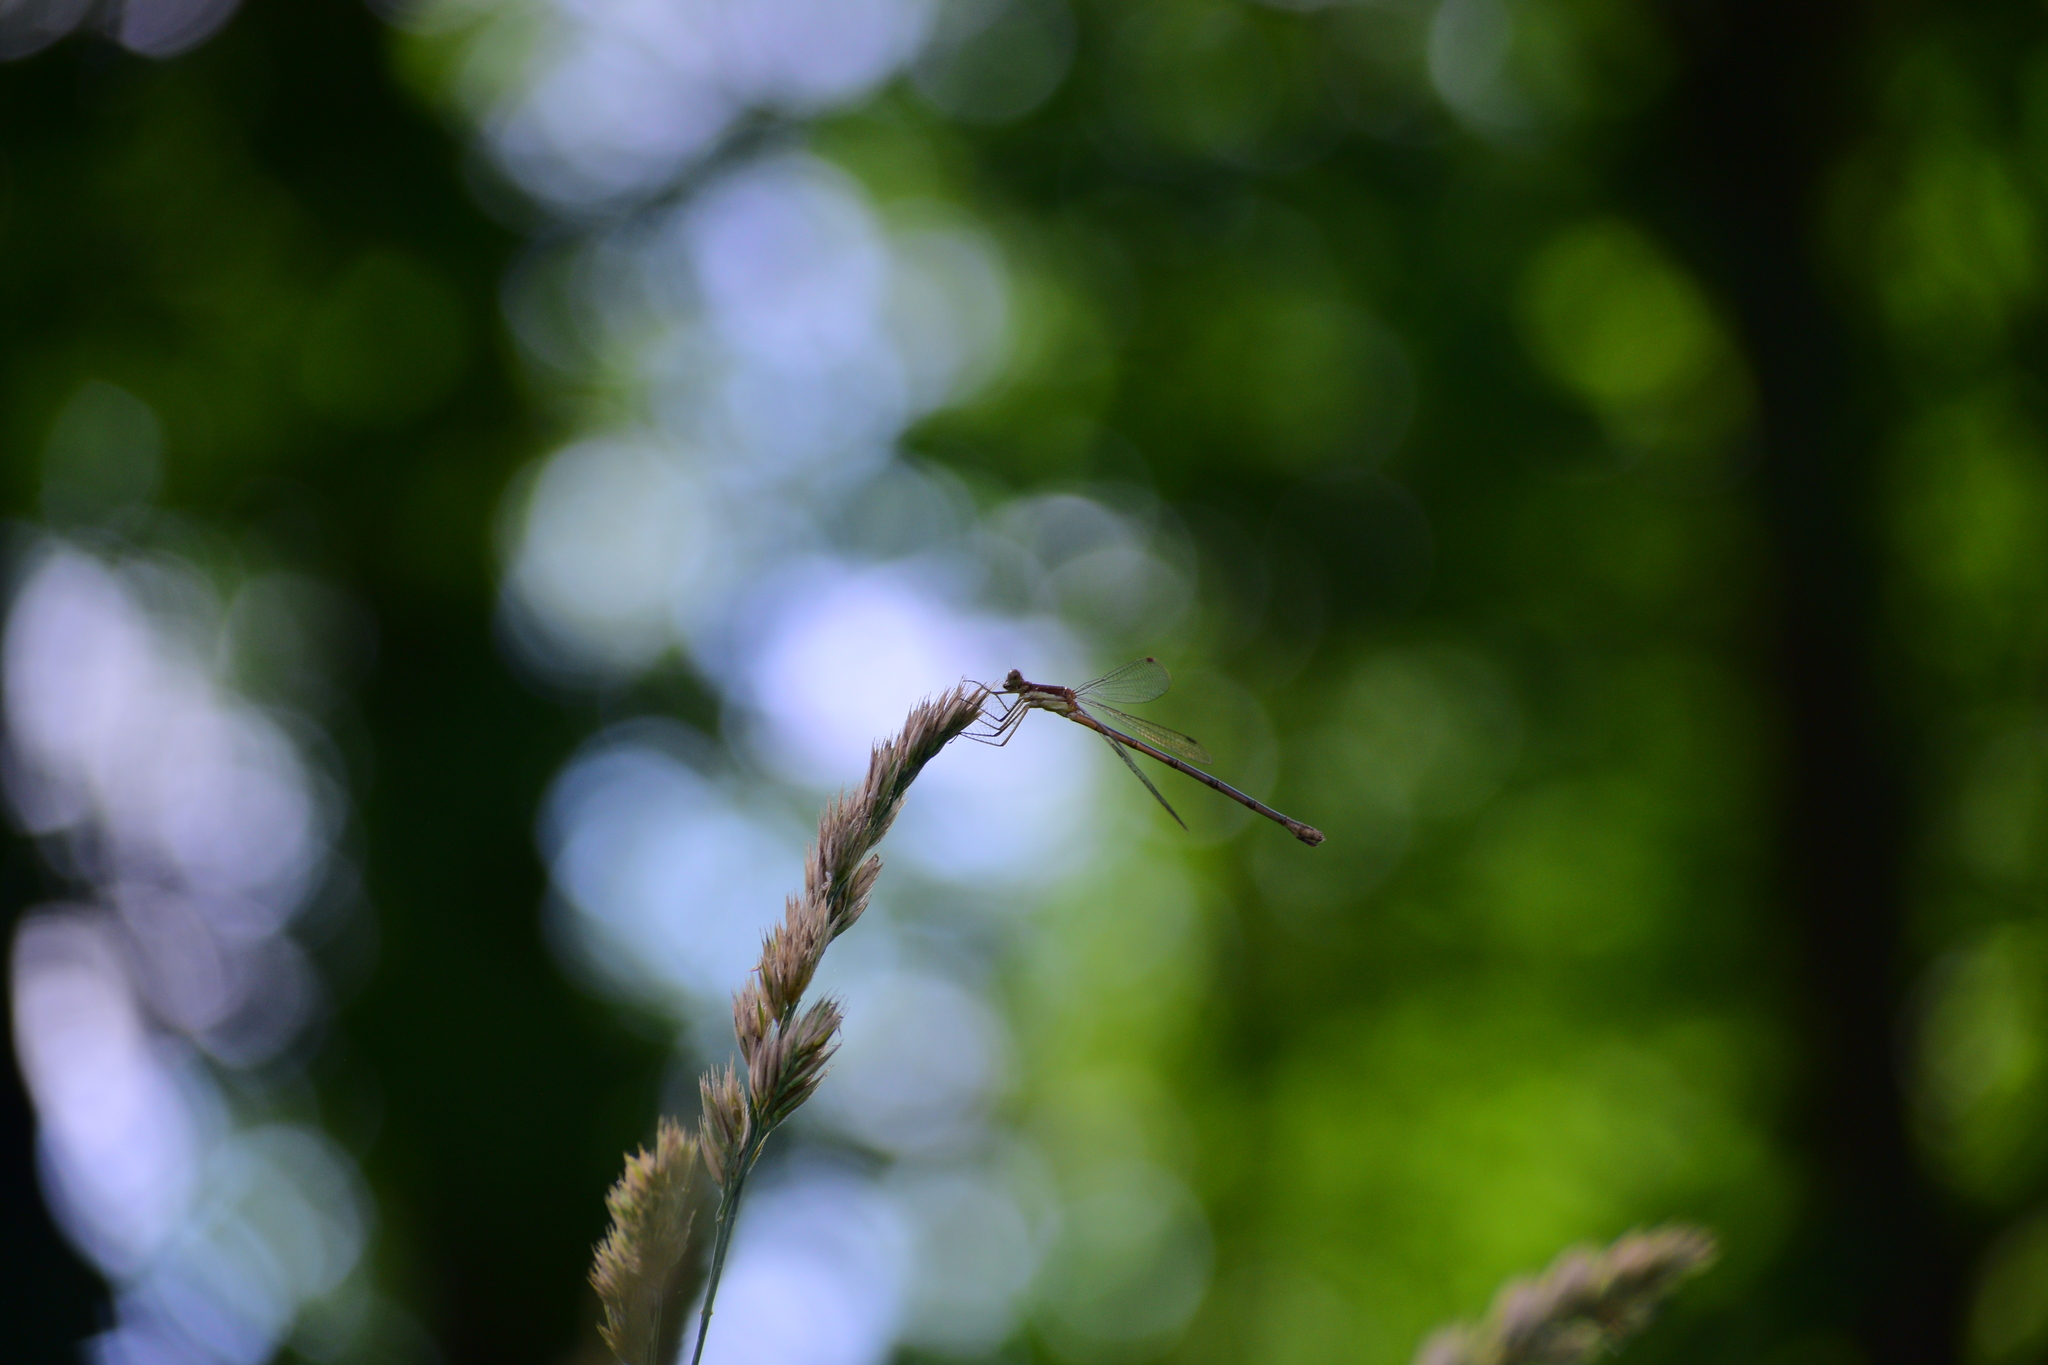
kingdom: Animalia
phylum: Arthropoda
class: Insecta
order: Odonata
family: Lestidae
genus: Lestes
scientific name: Lestes rectangularis
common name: Slender spreadwing
